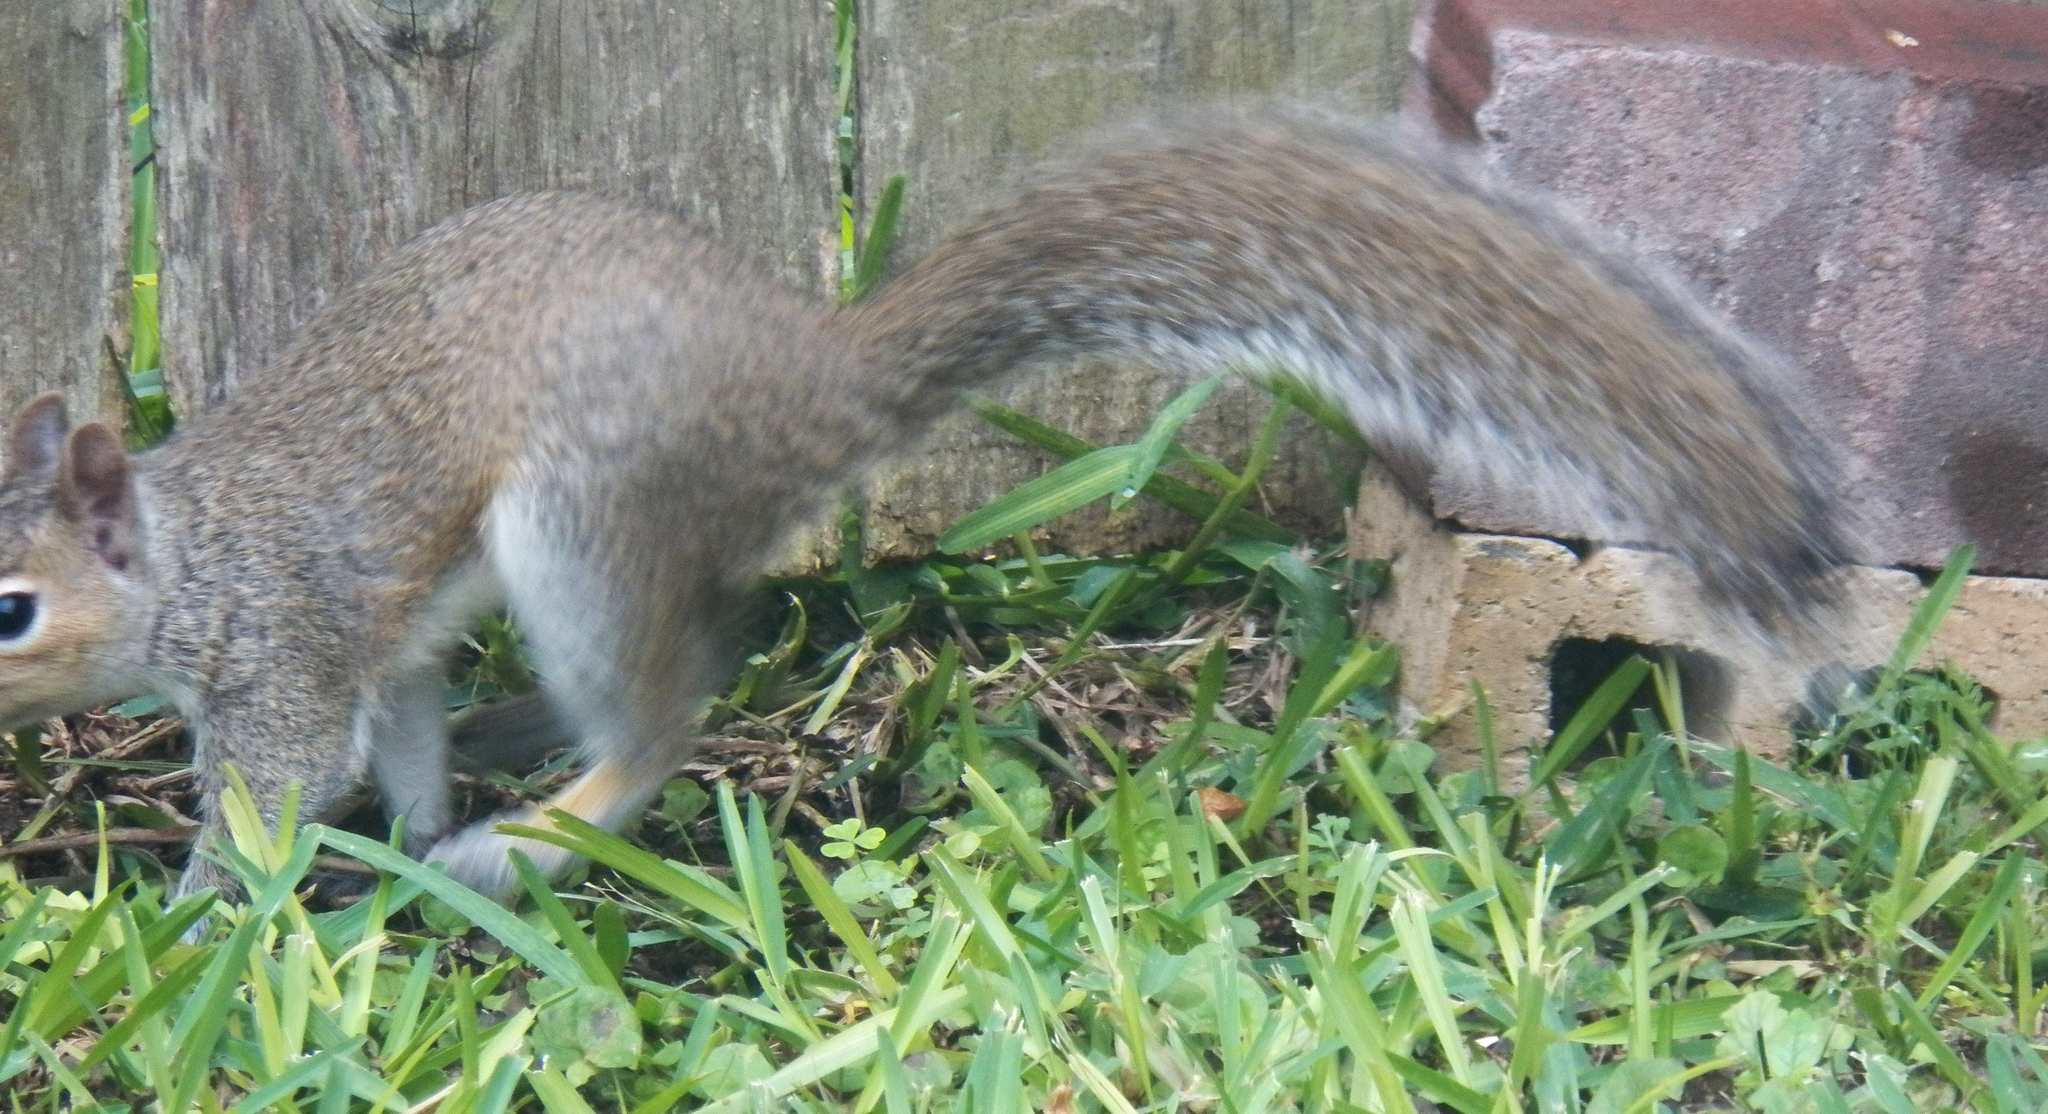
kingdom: Animalia
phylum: Chordata
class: Mammalia
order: Rodentia
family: Sciuridae
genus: Sciurus
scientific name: Sciurus carolinensis
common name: Eastern gray squirrel
